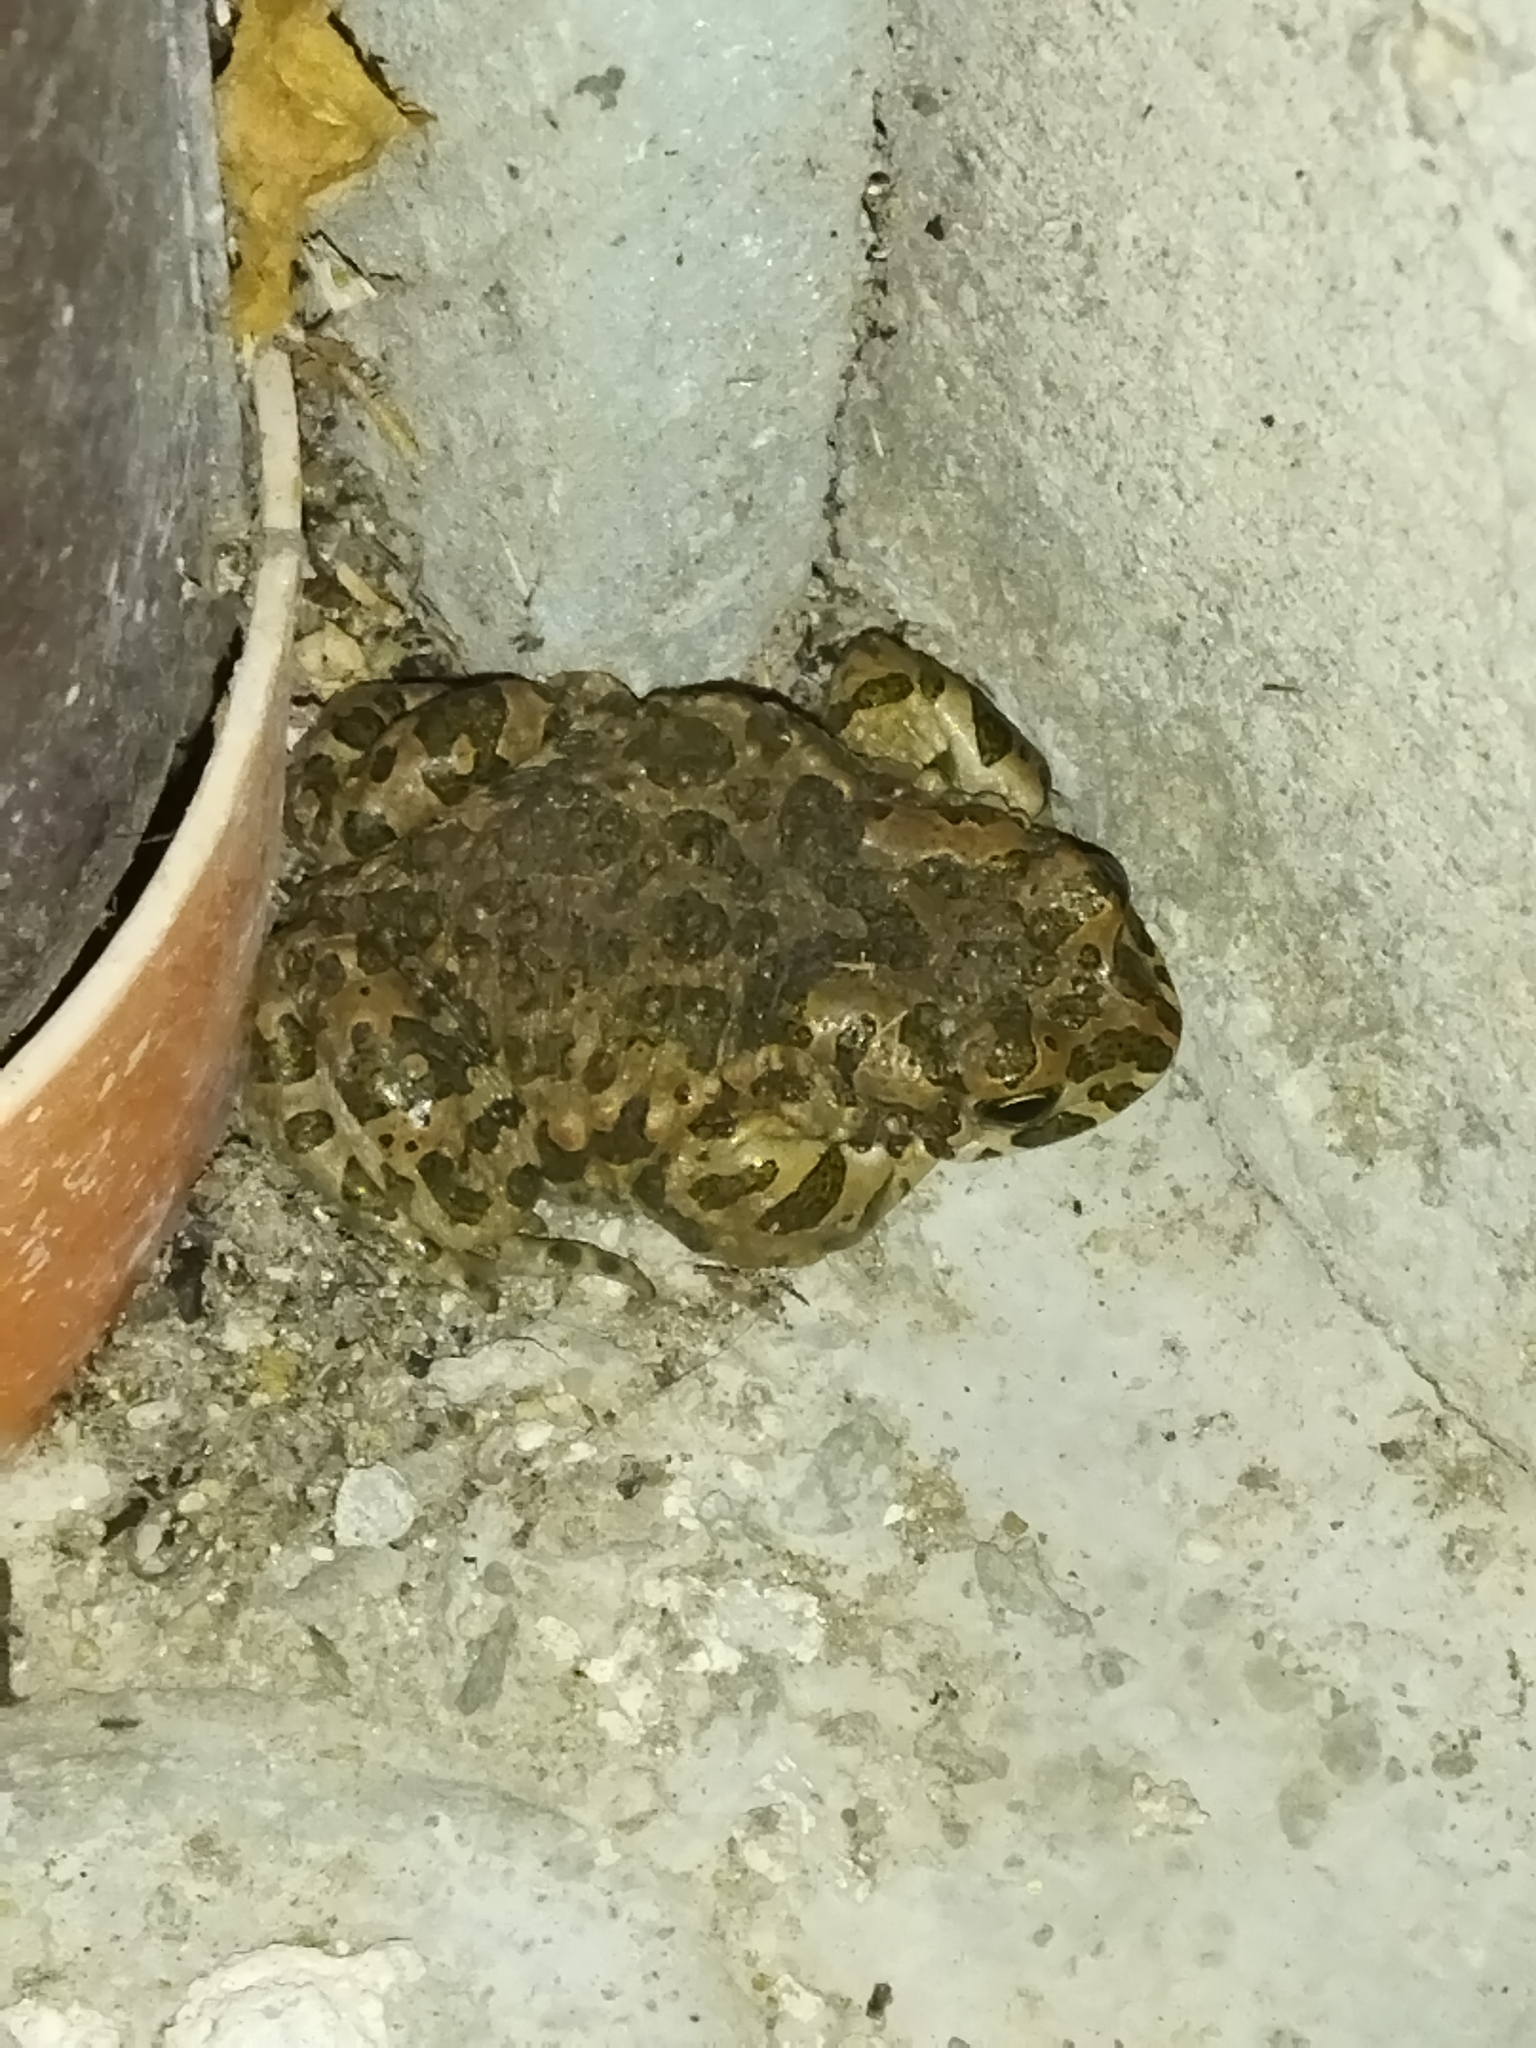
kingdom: Animalia
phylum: Chordata
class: Amphibia
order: Anura
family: Bufonidae
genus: Bufotes
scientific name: Bufotes viridis
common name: European green toad
